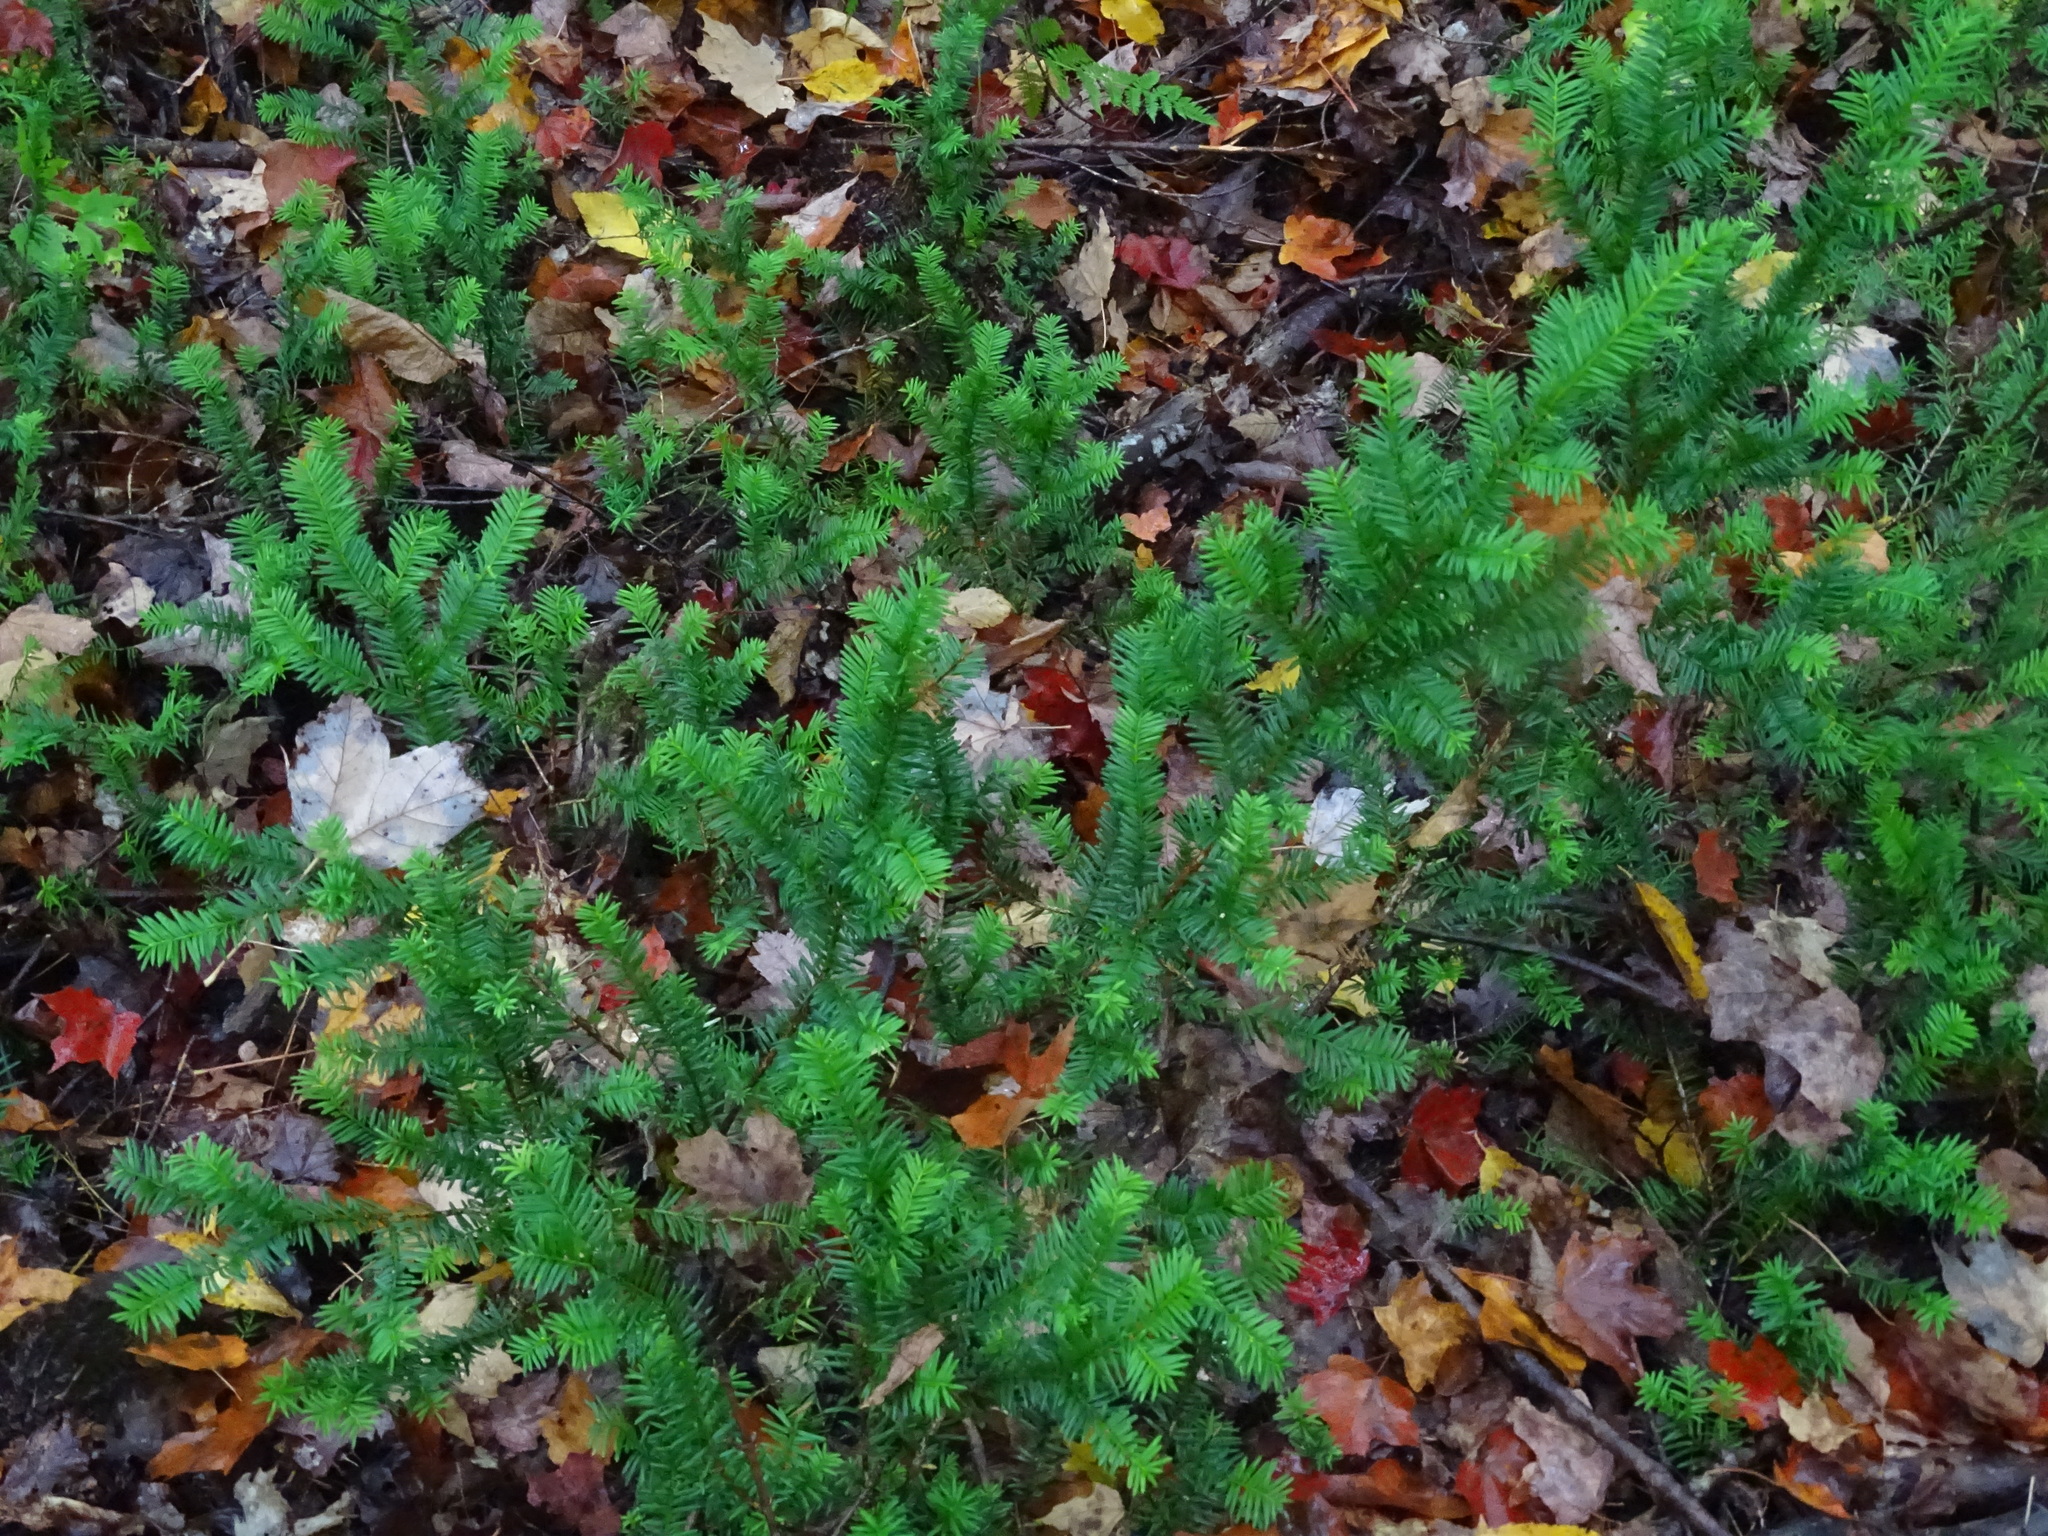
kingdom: Plantae
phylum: Tracheophyta
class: Pinopsida
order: Pinales
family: Taxaceae
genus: Taxus
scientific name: Taxus canadensis
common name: American yew
